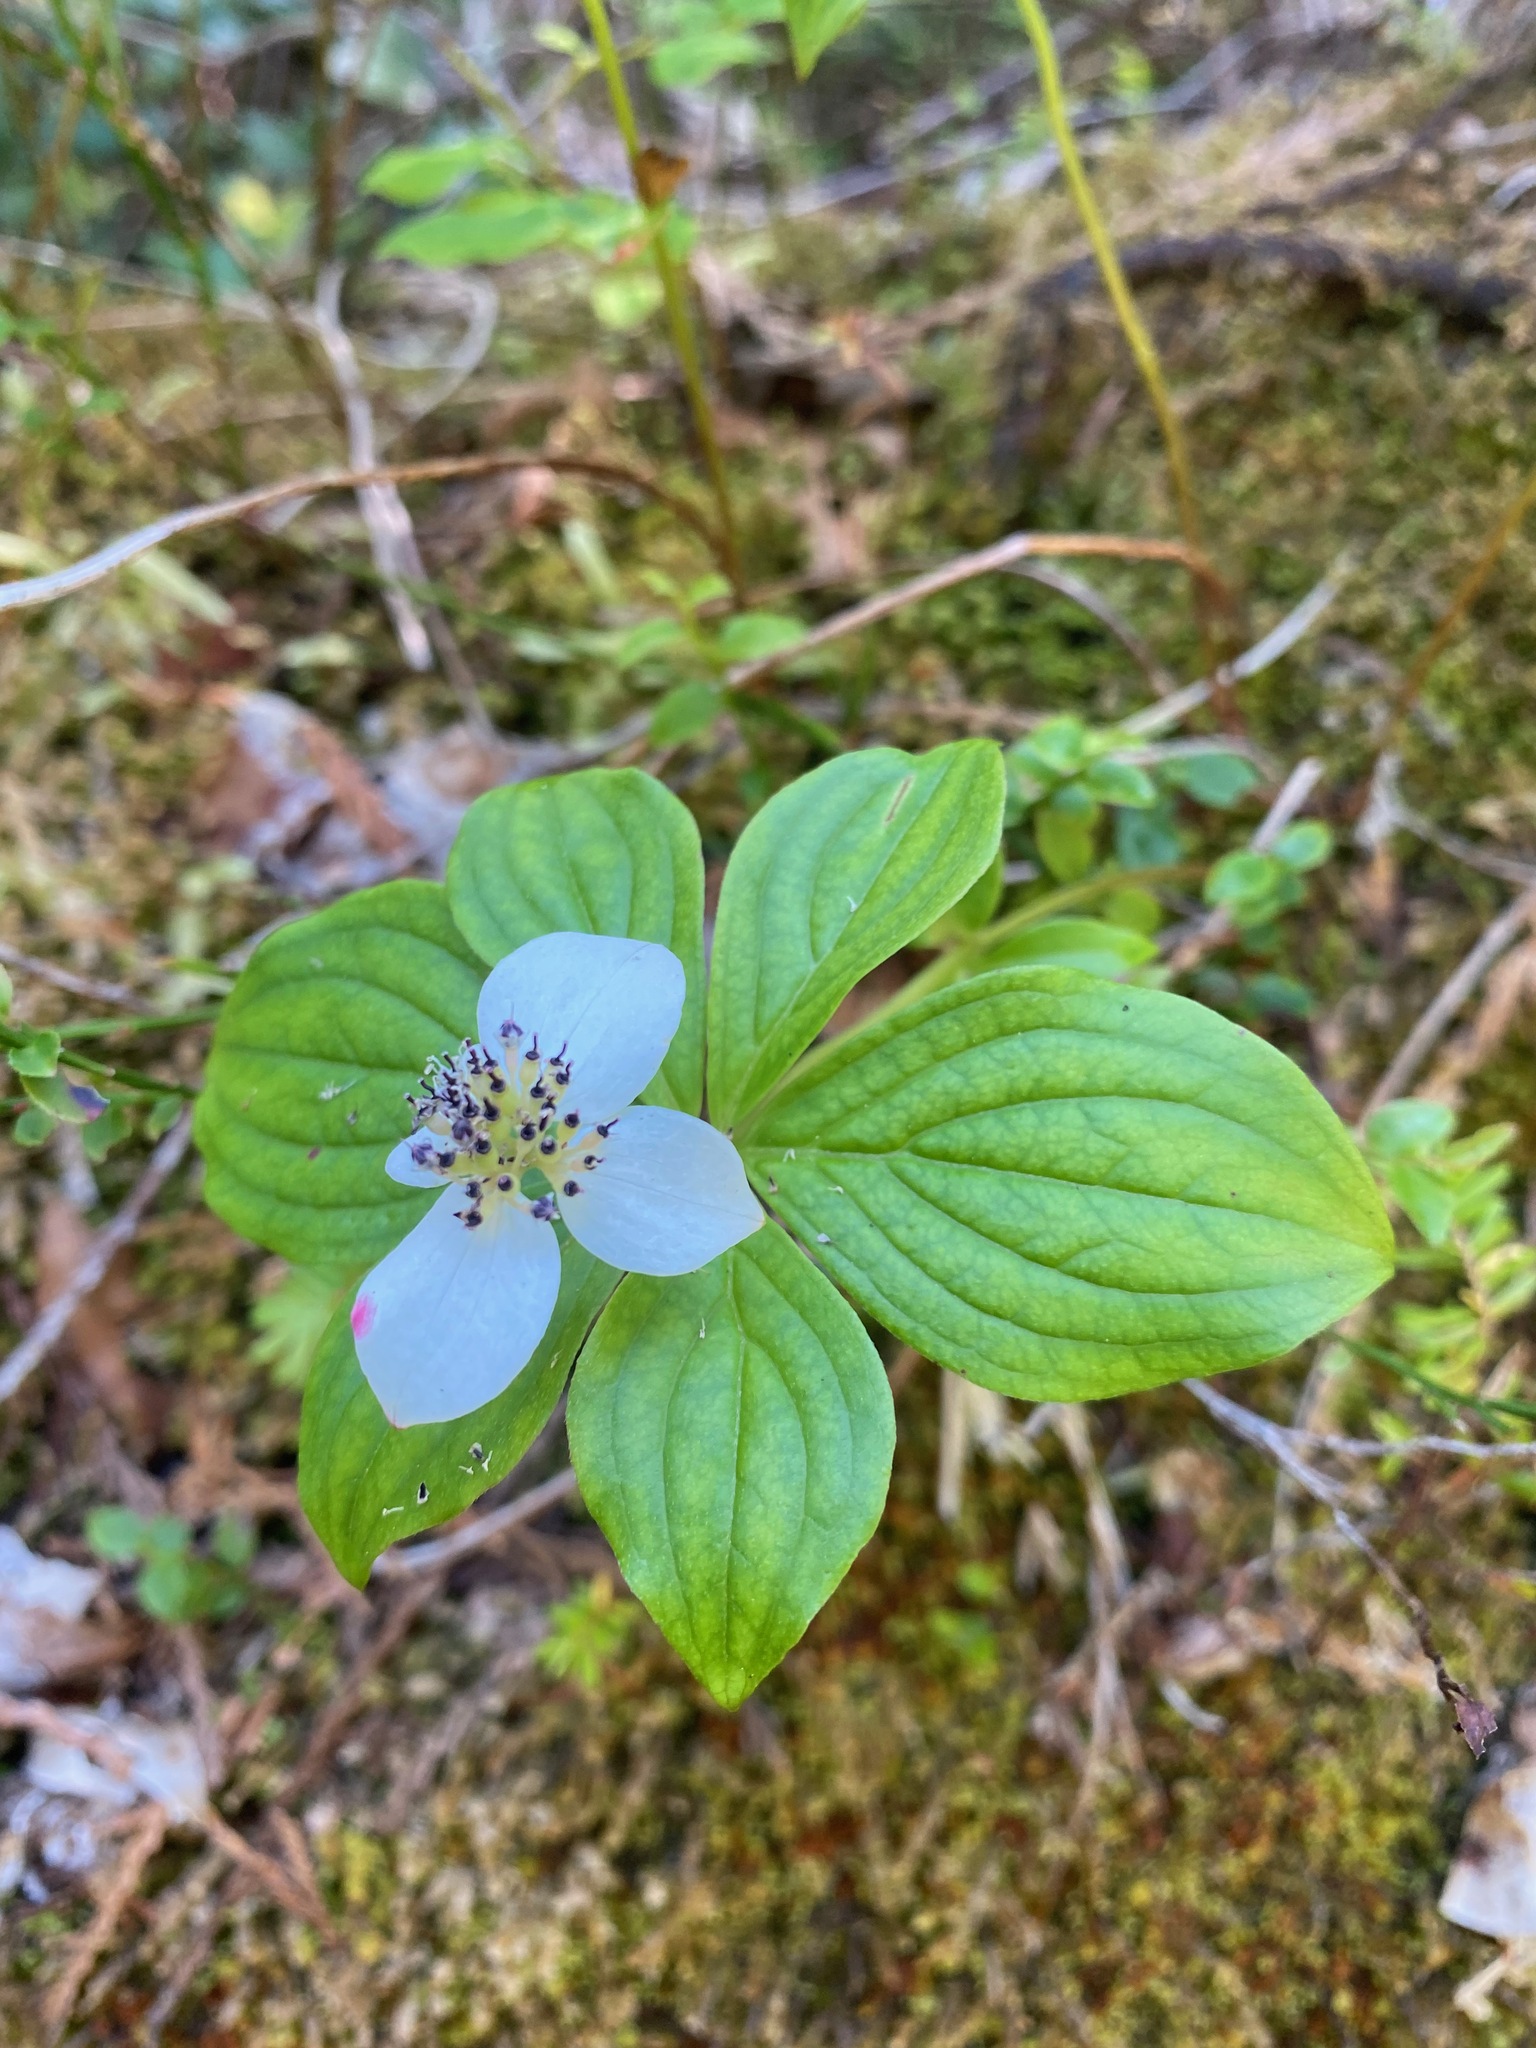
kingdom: Plantae
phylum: Tracheophyta
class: Magnoliopsida
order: Cornales
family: Cornaceae
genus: Cornus
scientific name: Cornus unalaschkensis
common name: Alaska bunchberry
